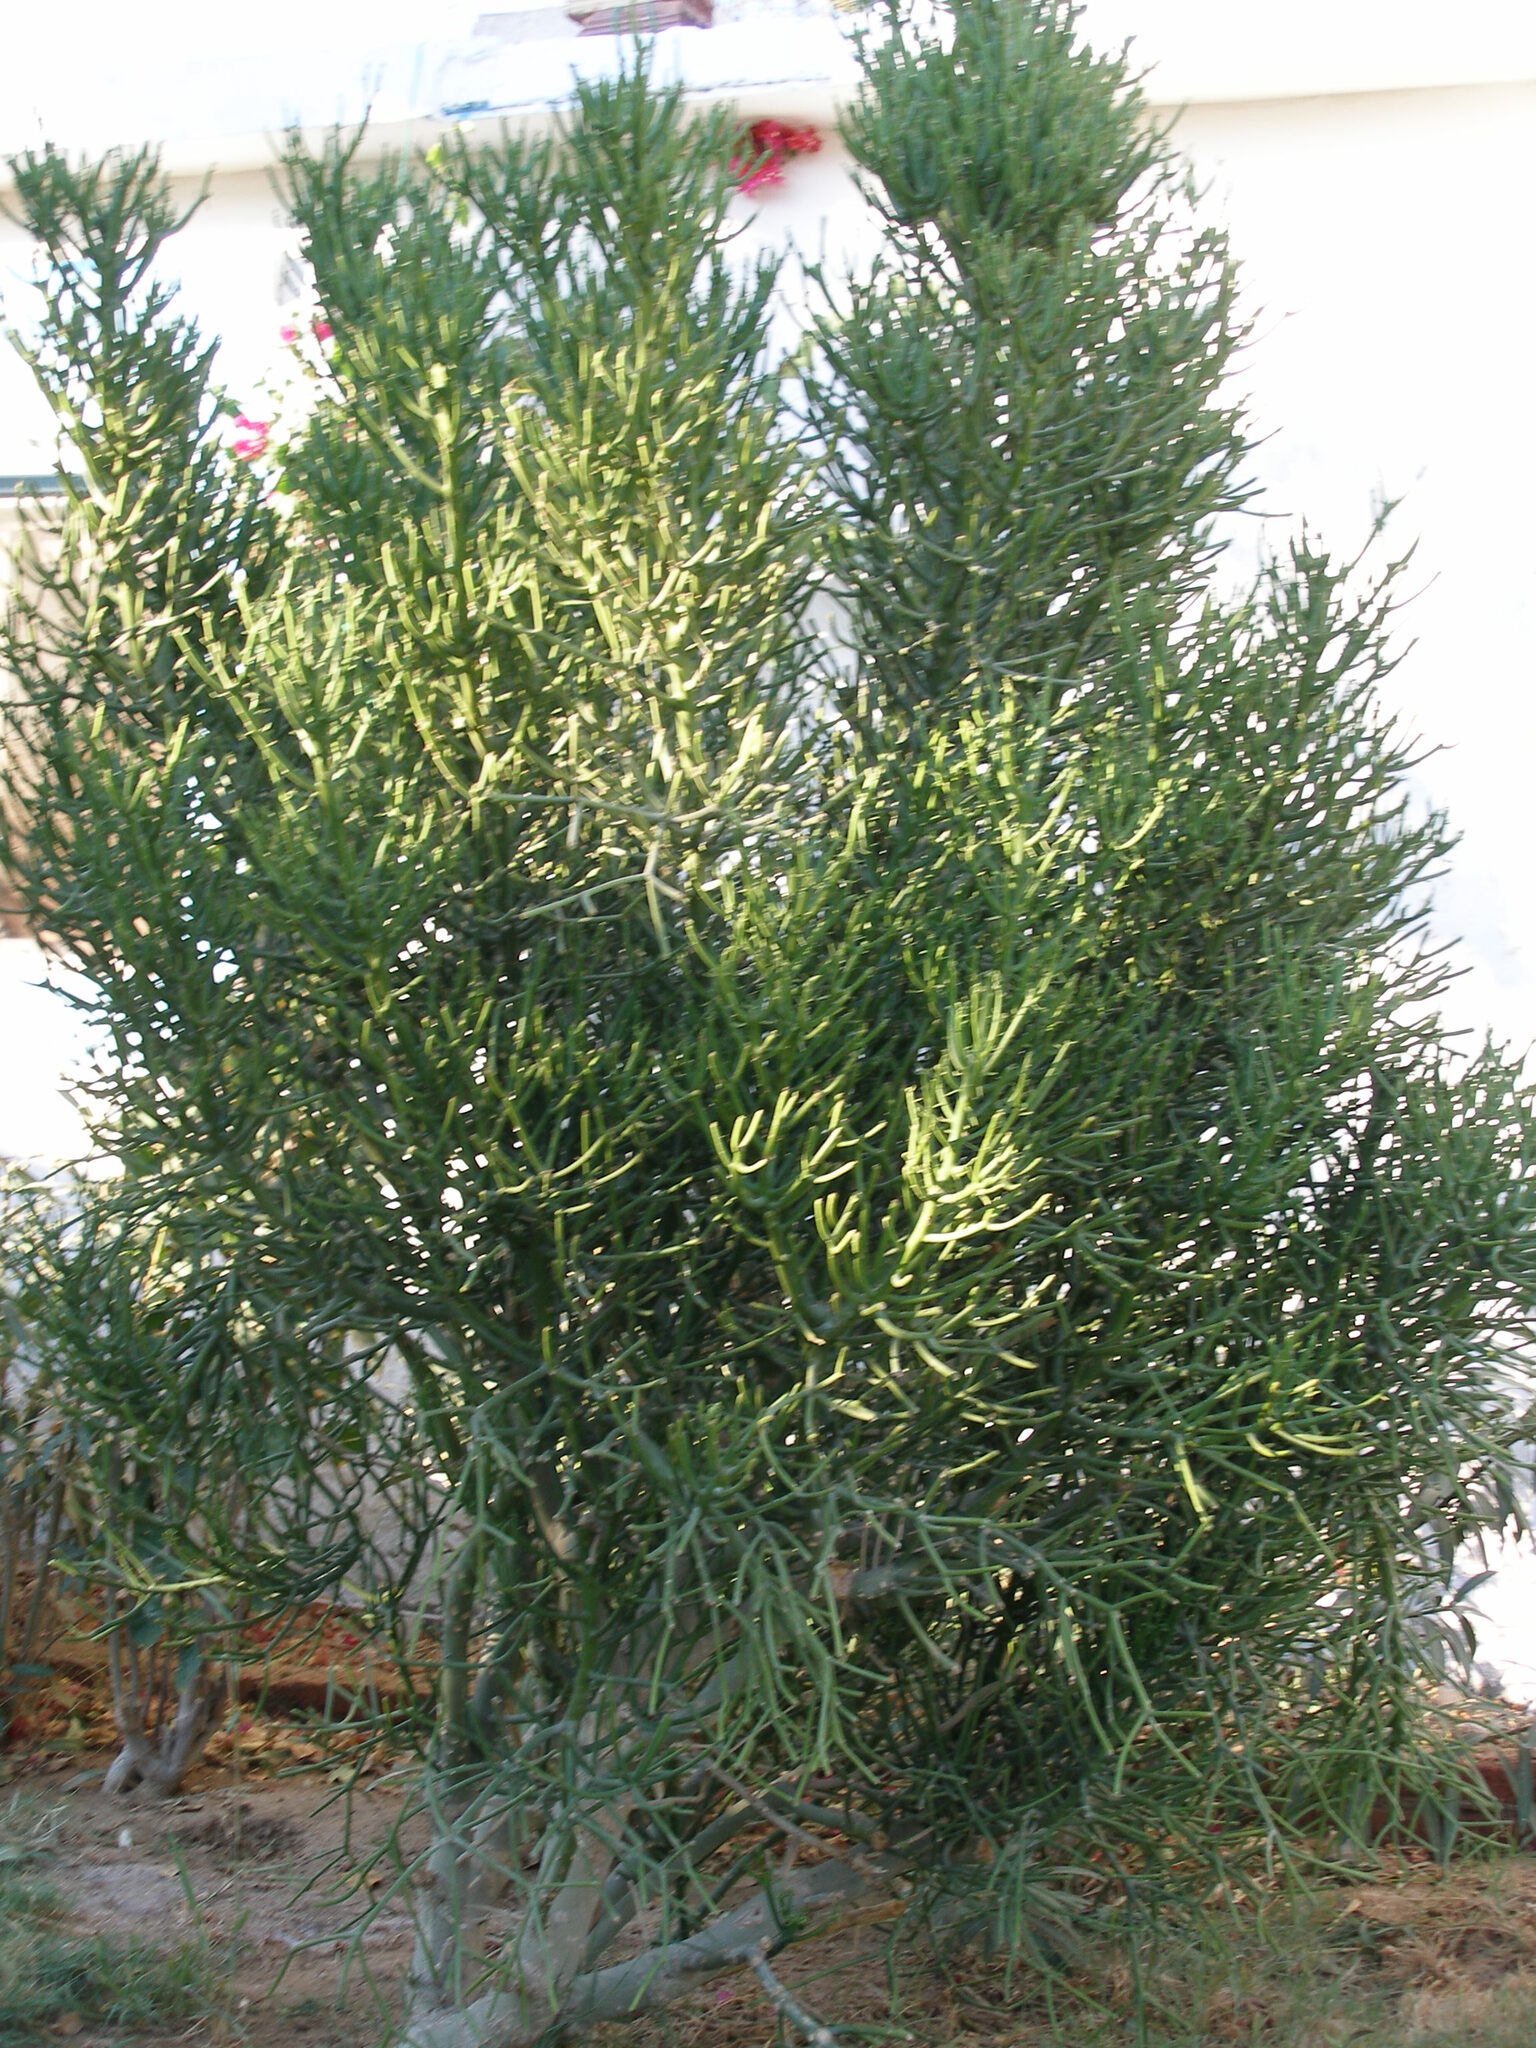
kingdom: Plantae
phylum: Tracheophyta
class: Magnoliopsida
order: Malpighiales
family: Euphorbiaceae
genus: Euphorbia
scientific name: Euphorbia tirucalli
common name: Indiantree spurge
